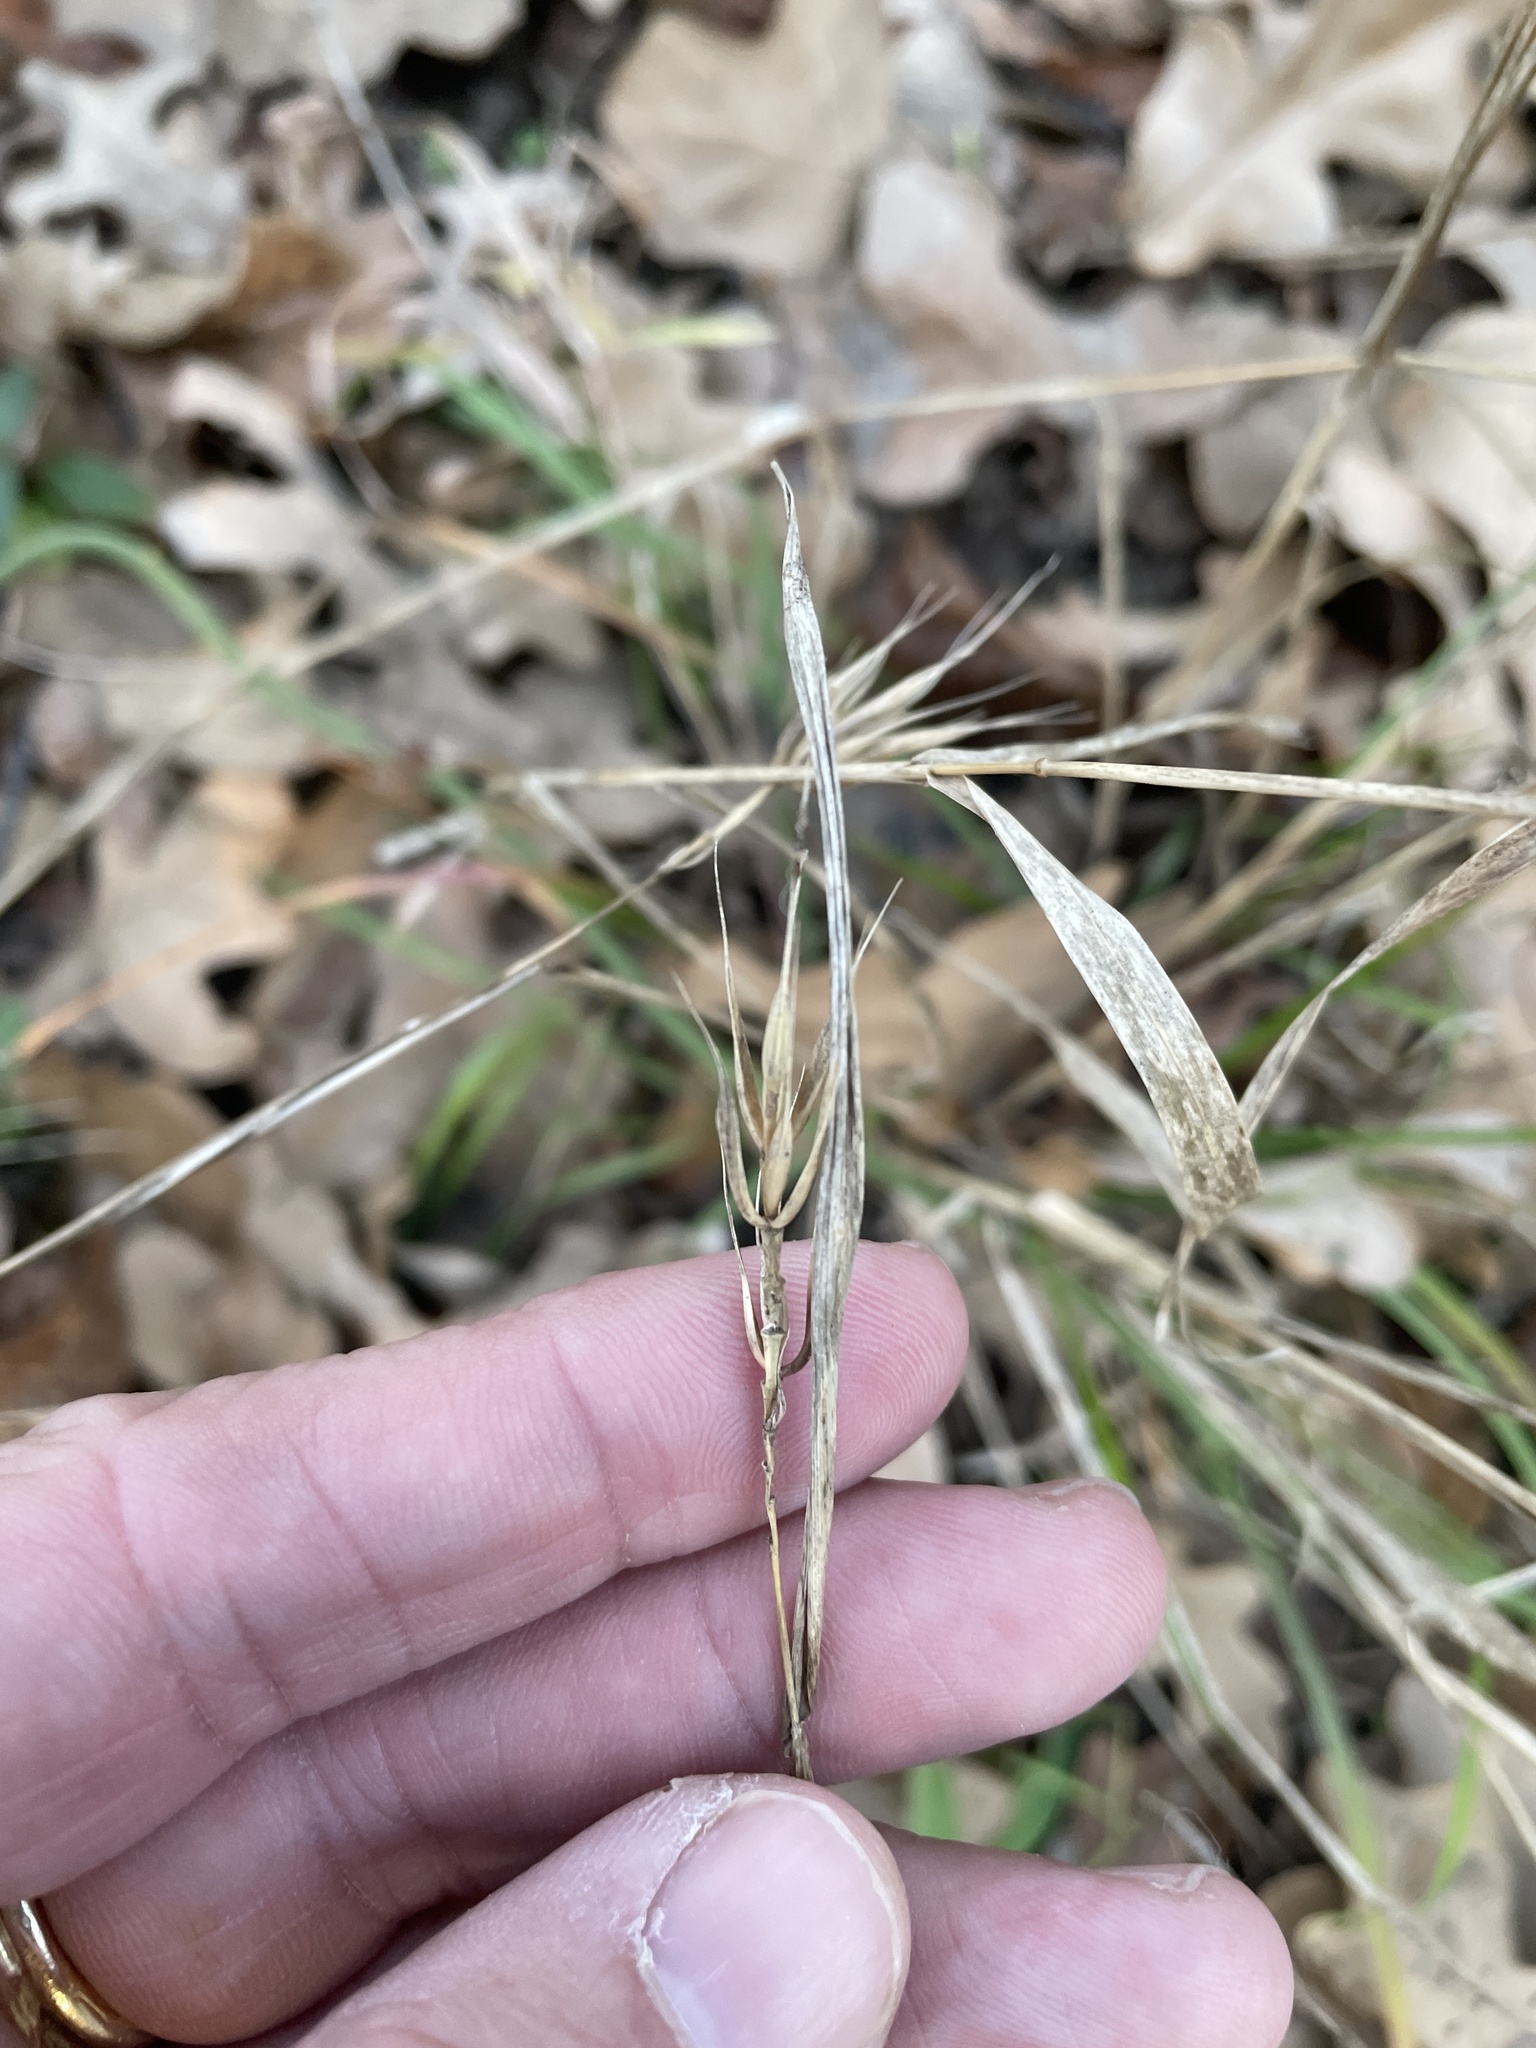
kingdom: Plantae
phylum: Tracheophyta
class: Liliopsida
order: Poales
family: Poaceae
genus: Elymus
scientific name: Elymus virginicus
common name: Common eastern wildrye
